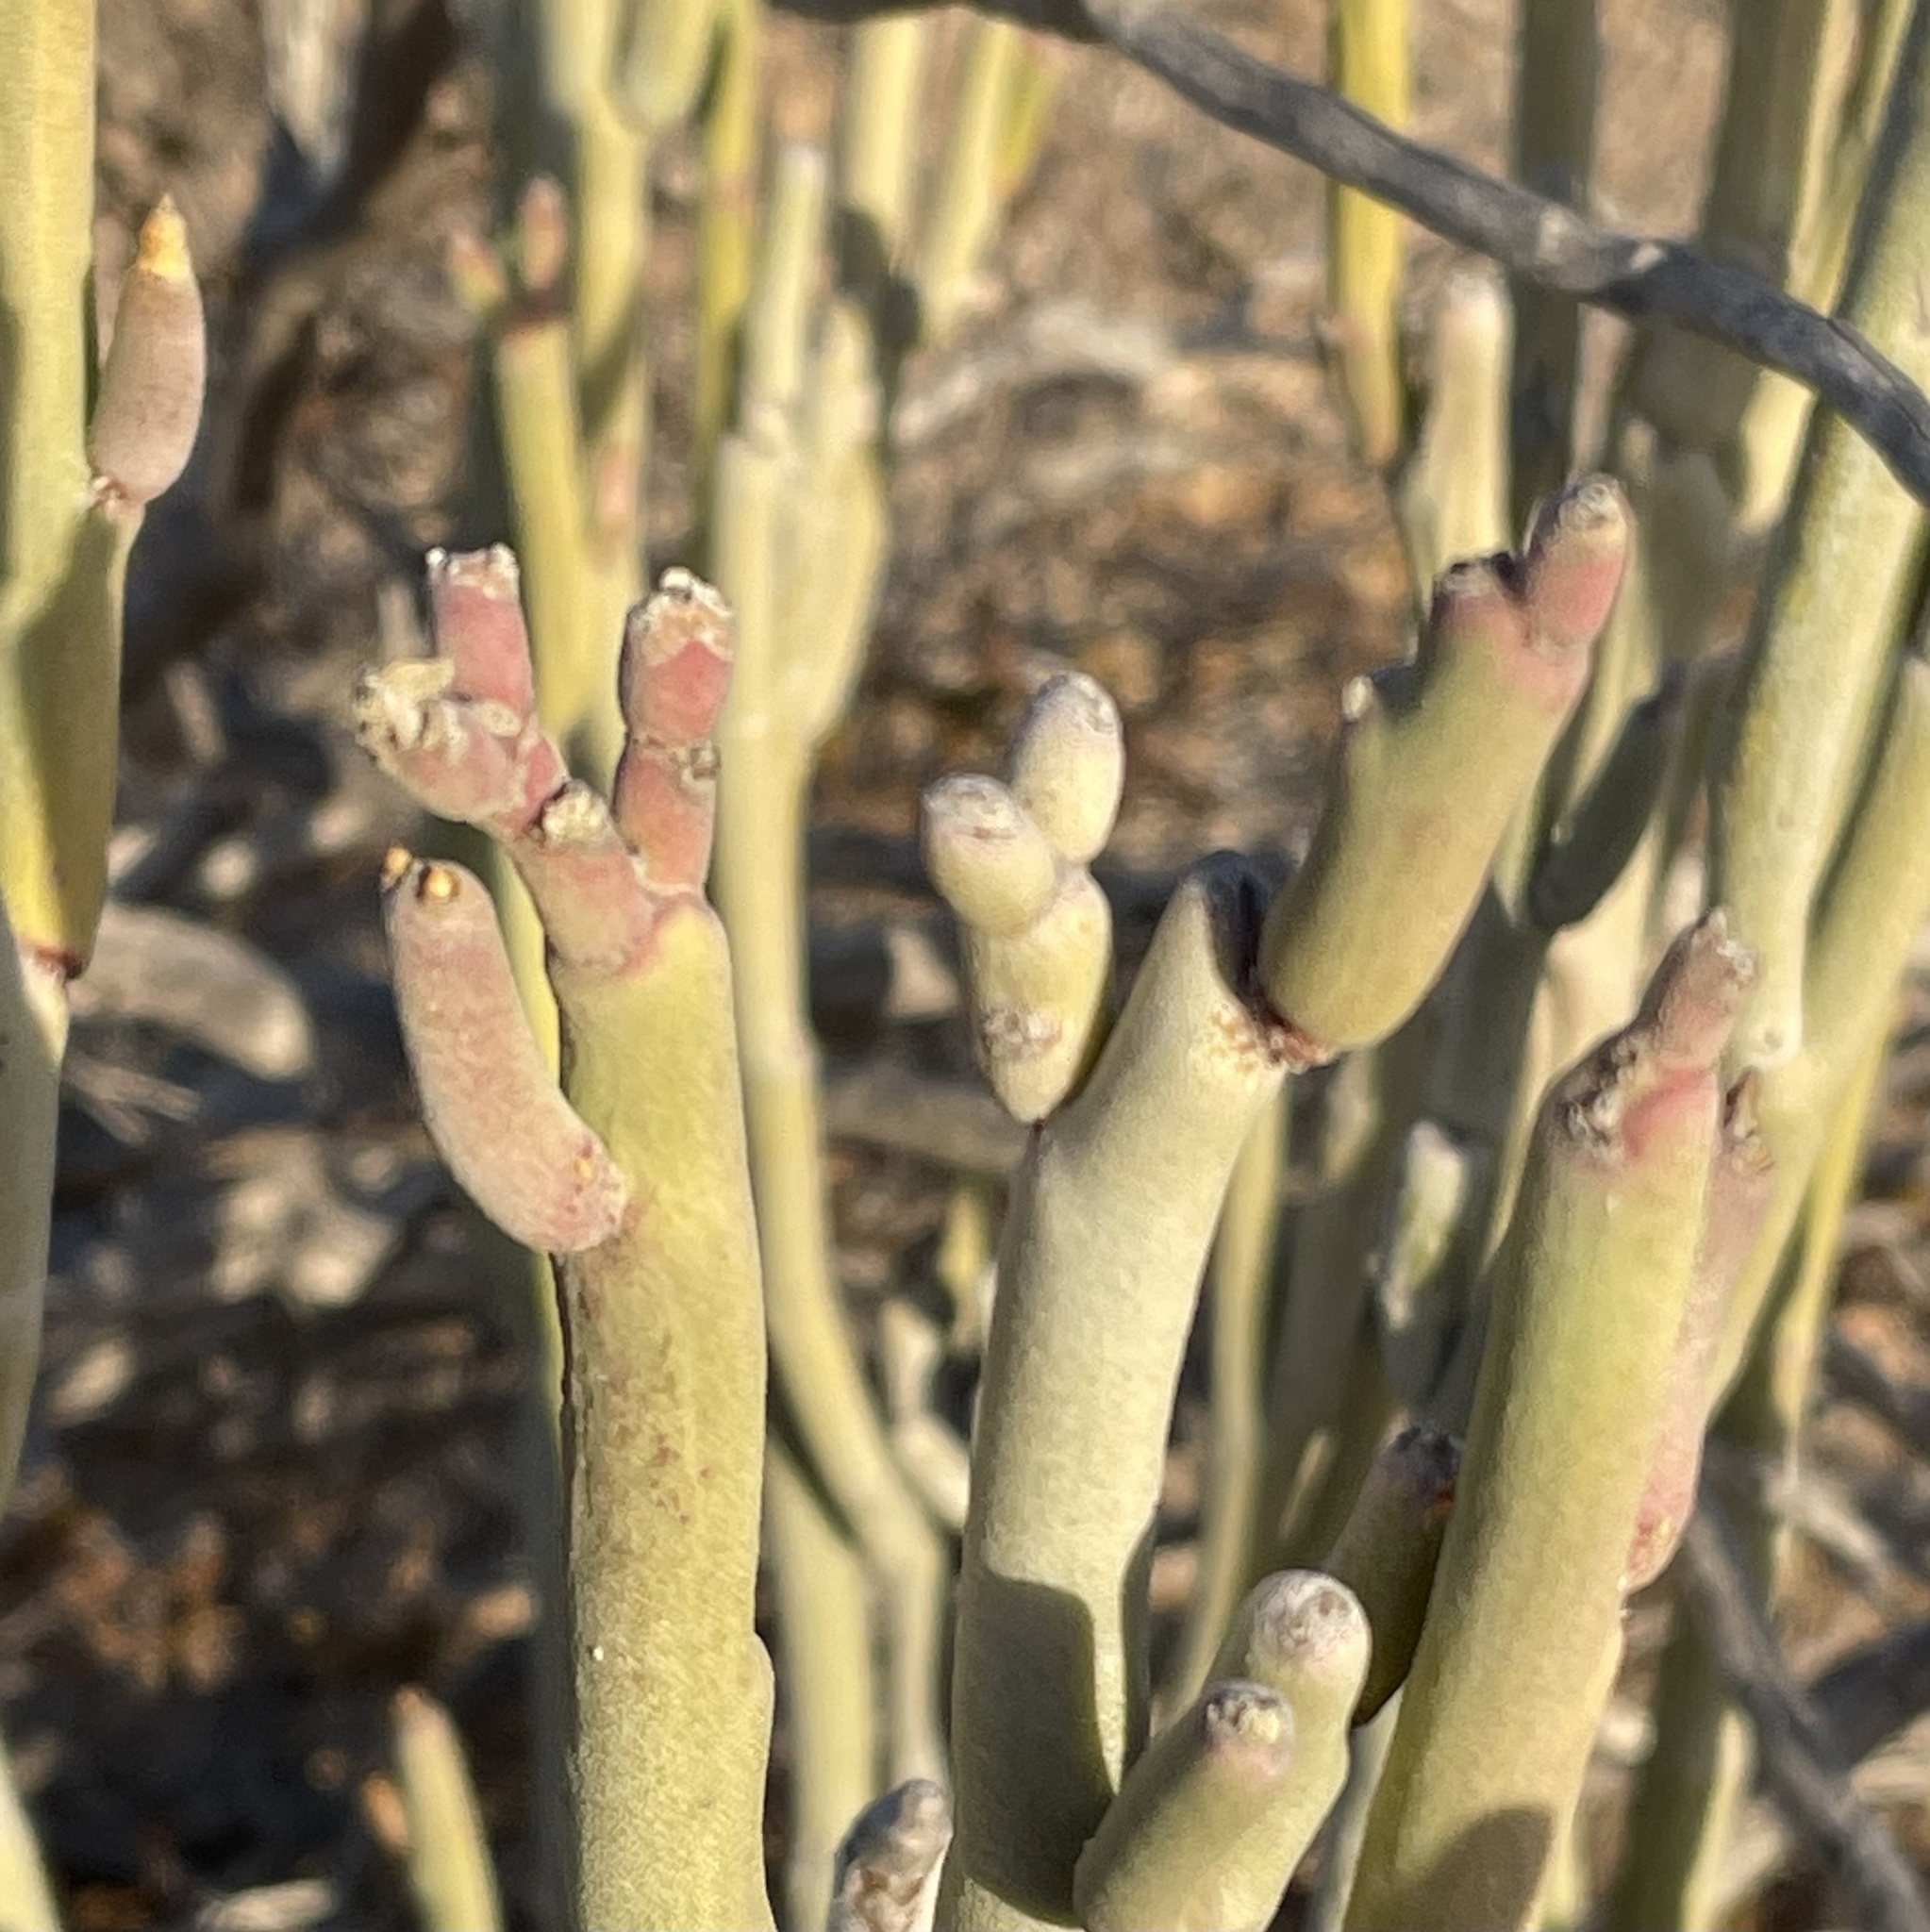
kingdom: Plantae
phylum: Tracheophyta
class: Magnoliopsida
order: Malpighiales
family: Euphorbiaceae
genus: Euphorbia
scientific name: Euphorbia lomelii
